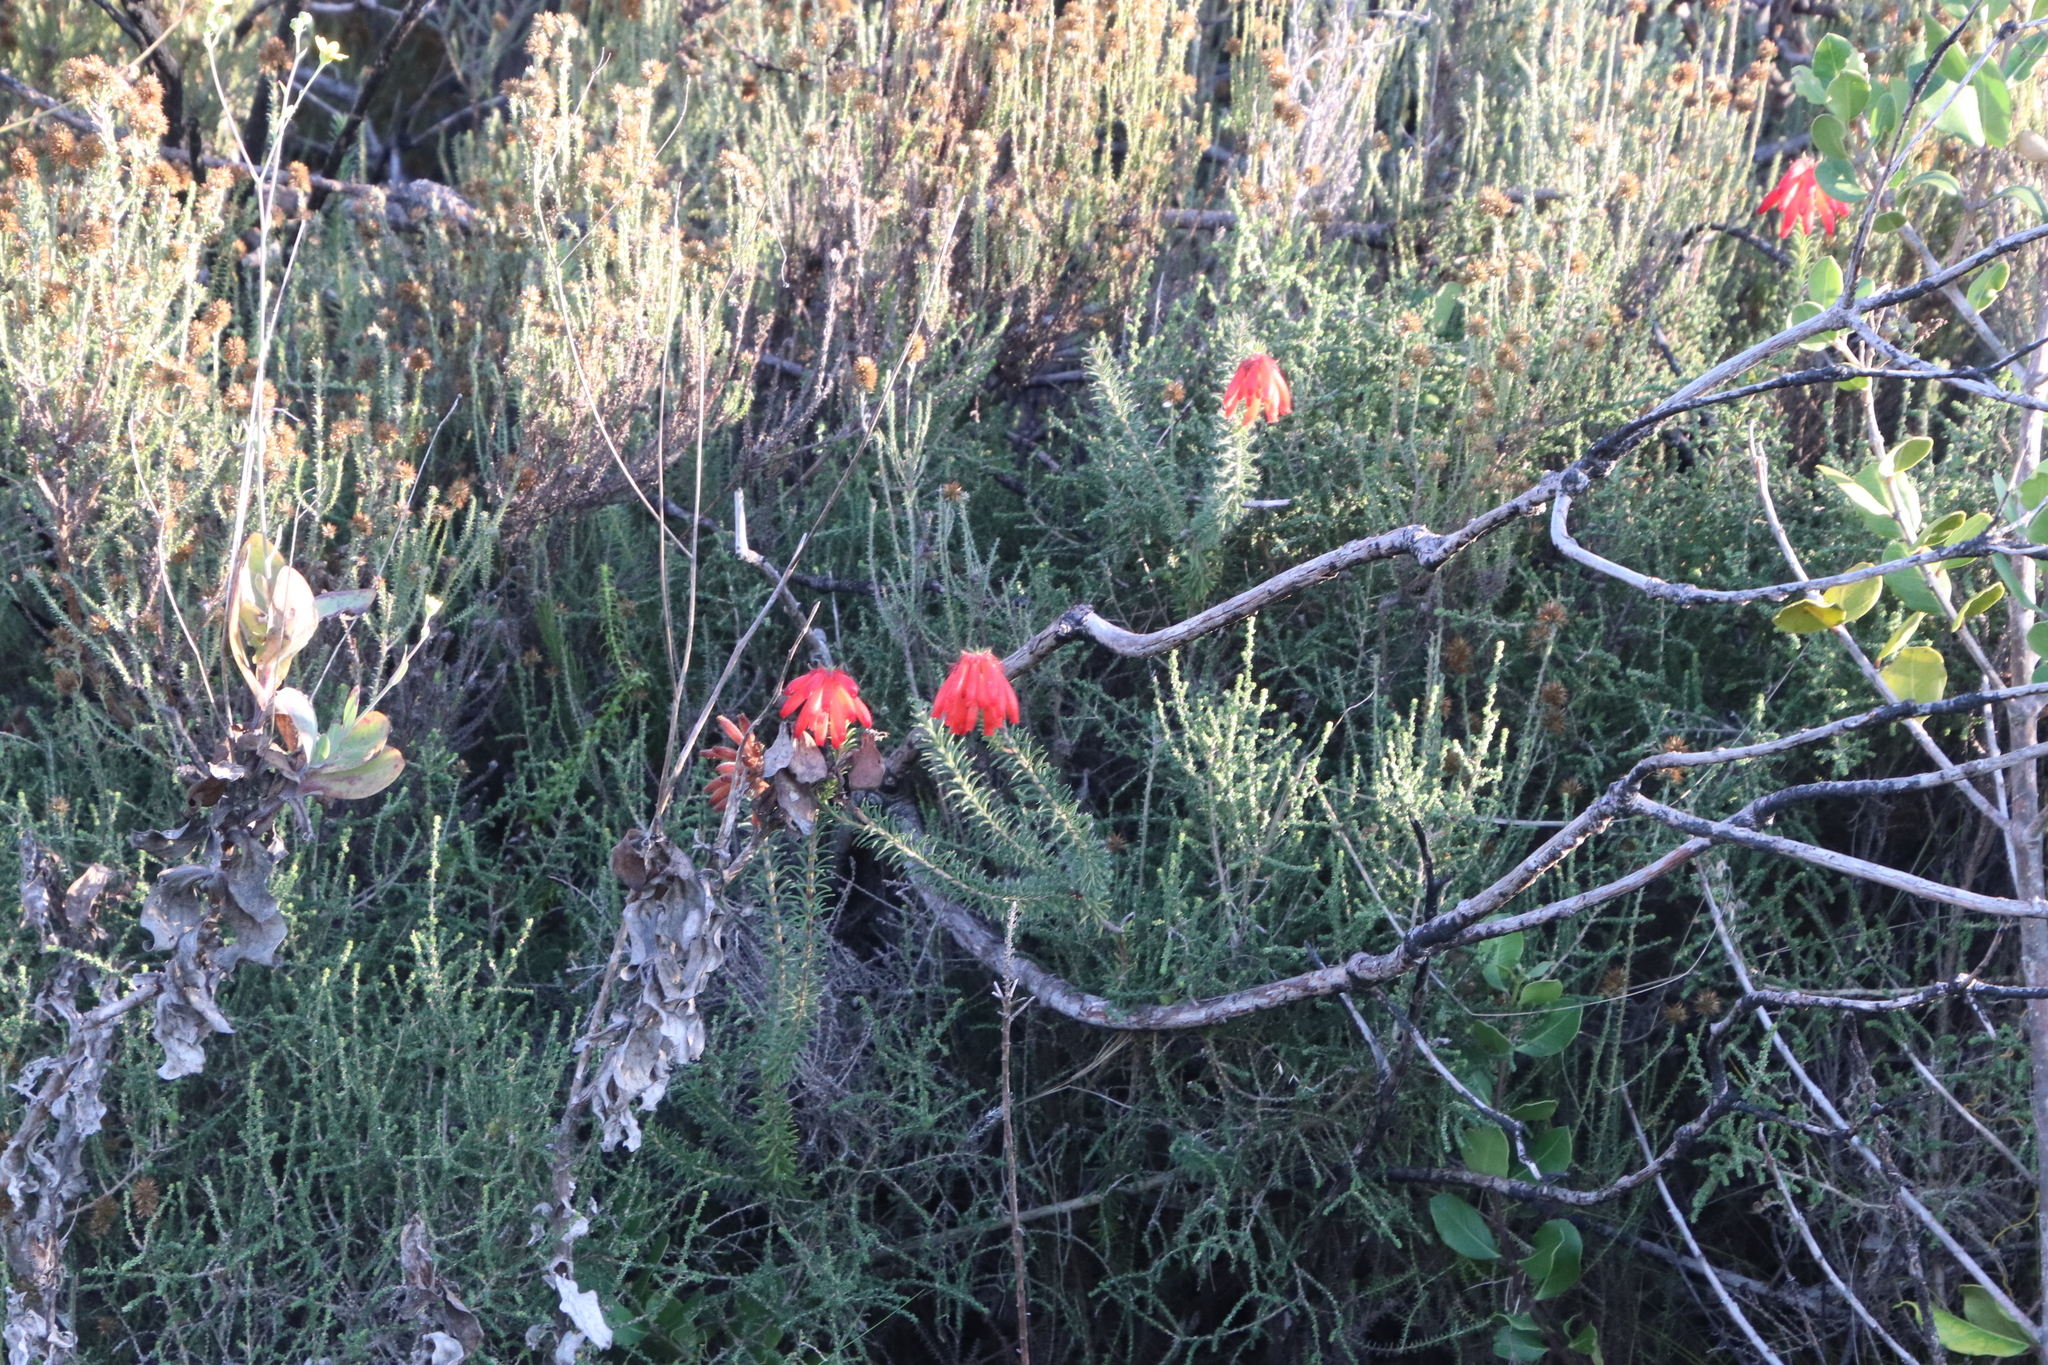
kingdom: Plantae
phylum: Tracheophyta
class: Magnoliopsida
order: Ericales
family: Ericaceae
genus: Erica
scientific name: Erica cerinthoides
